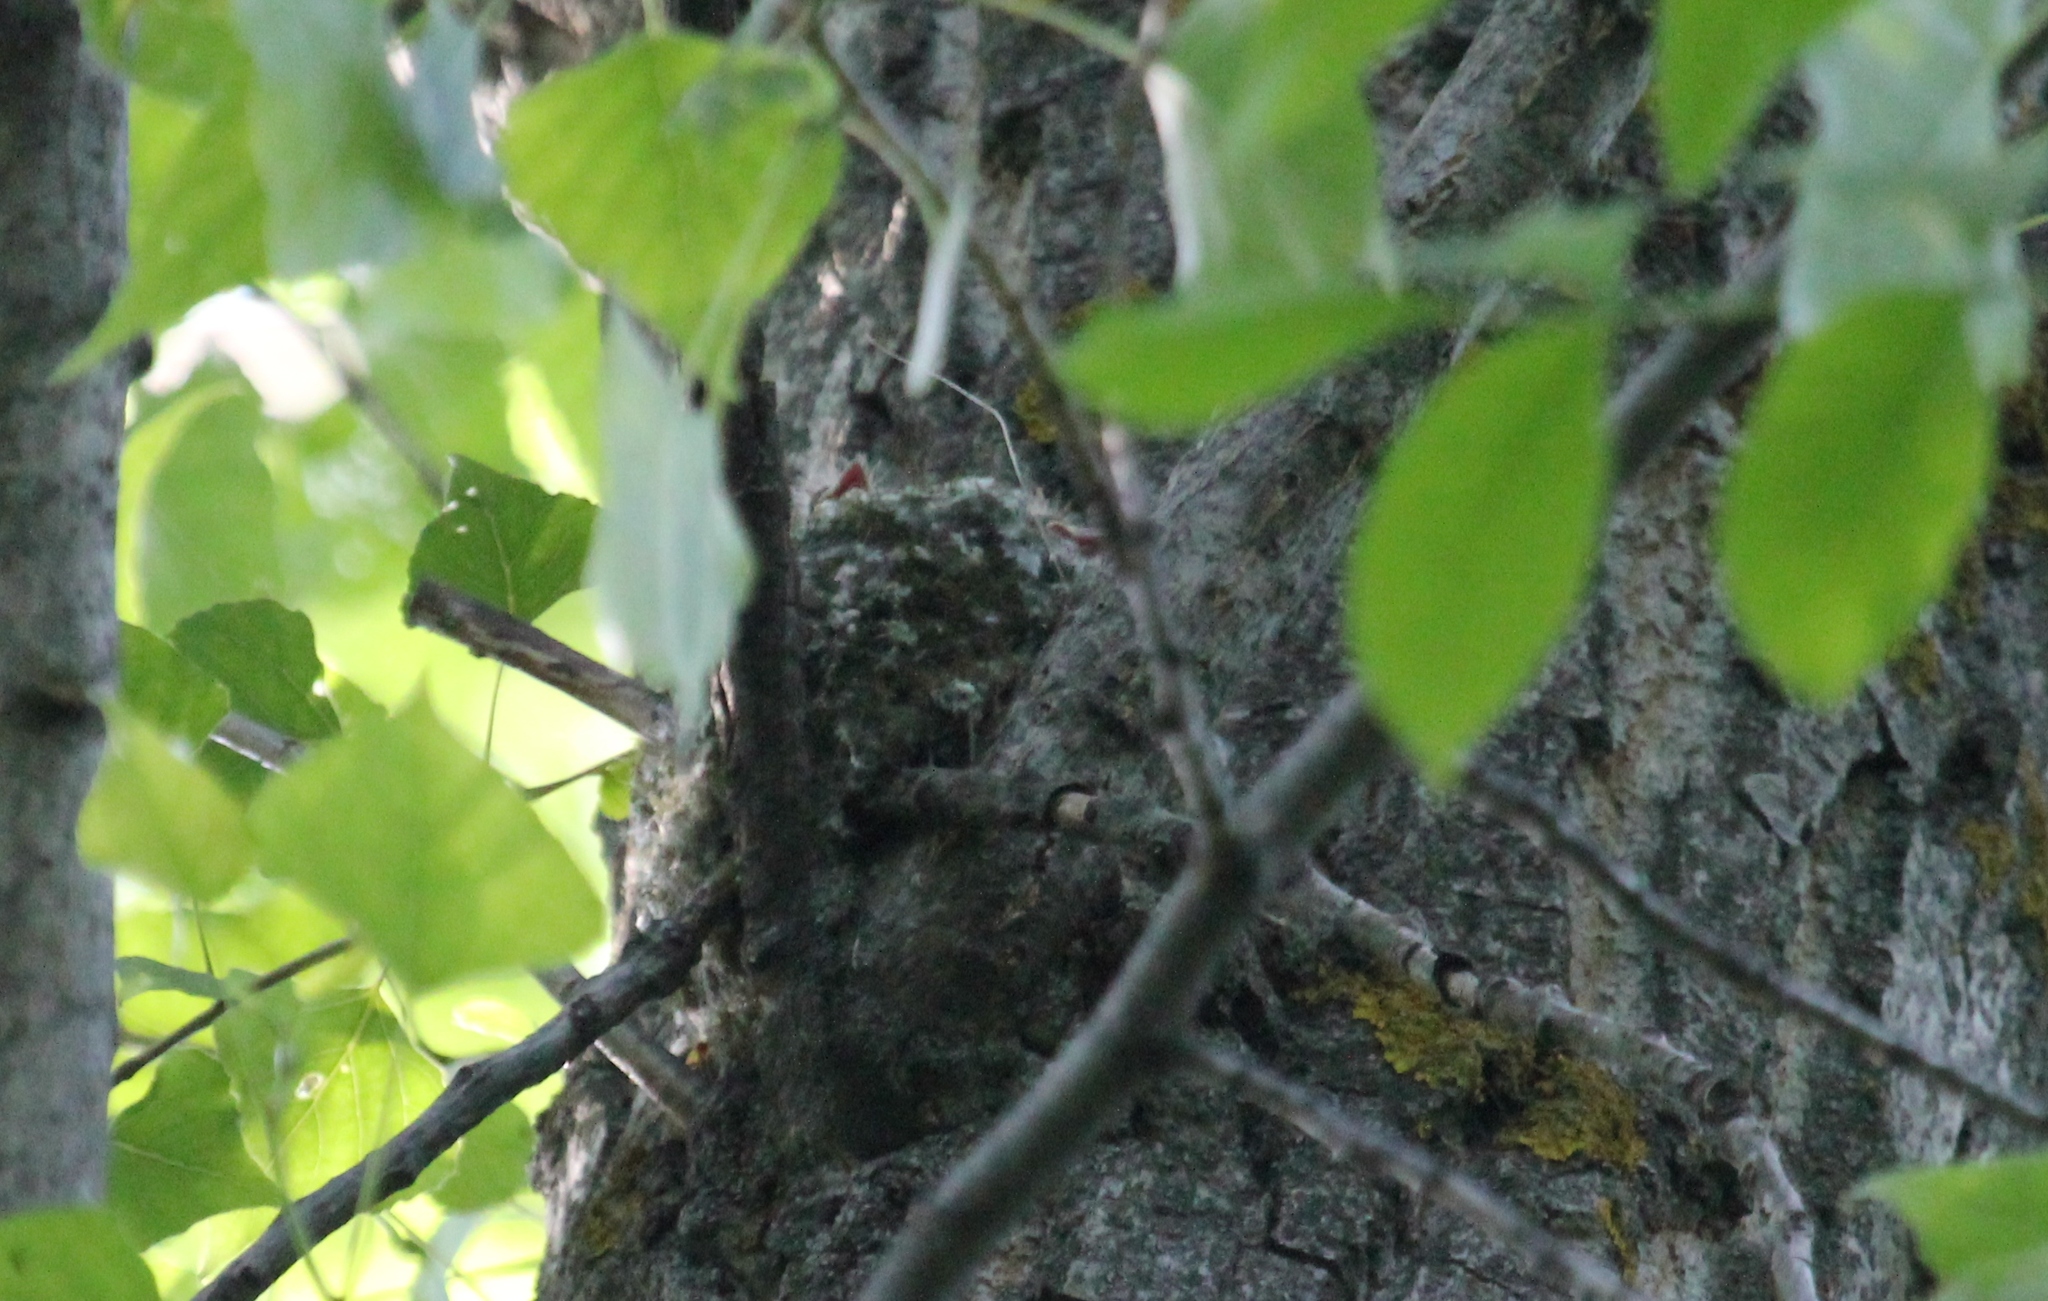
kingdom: Animalia
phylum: Chordata
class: Aves
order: Passeriformes
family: Fringillidae
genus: Fringilla
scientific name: Fringilla coelebs
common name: Common chaffinch
